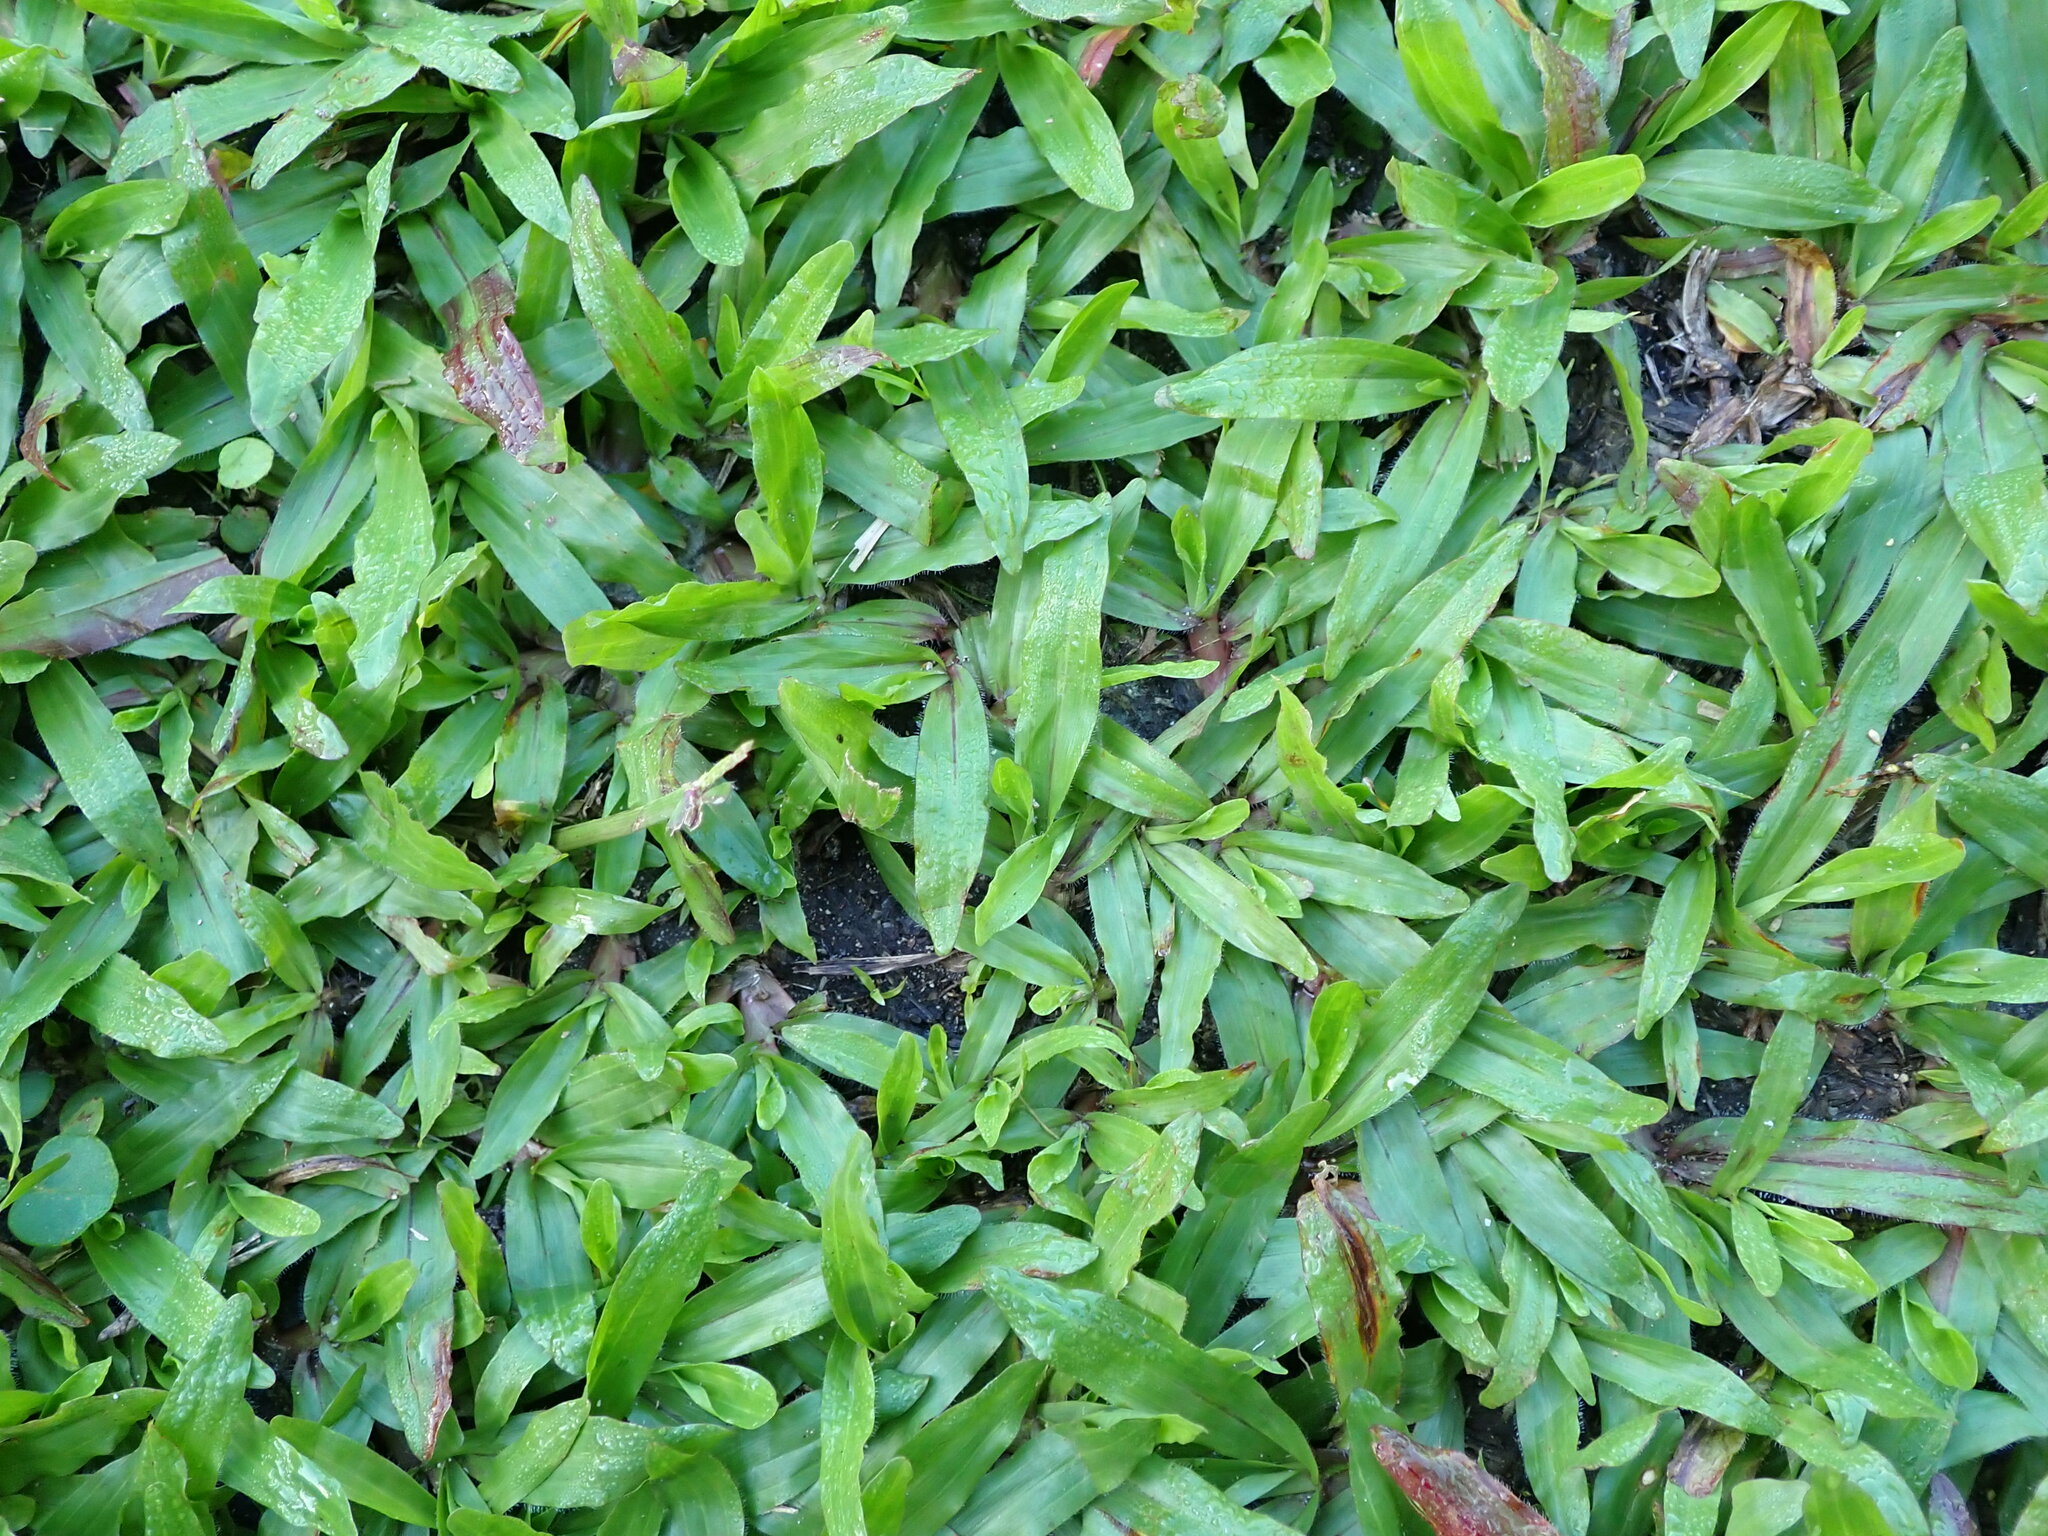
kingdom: Plantae
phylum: Tracheophyta
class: Liliopsida
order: Poales
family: Poaceae
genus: Axonopus
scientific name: Axonopus compressus
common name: American carpet grass
